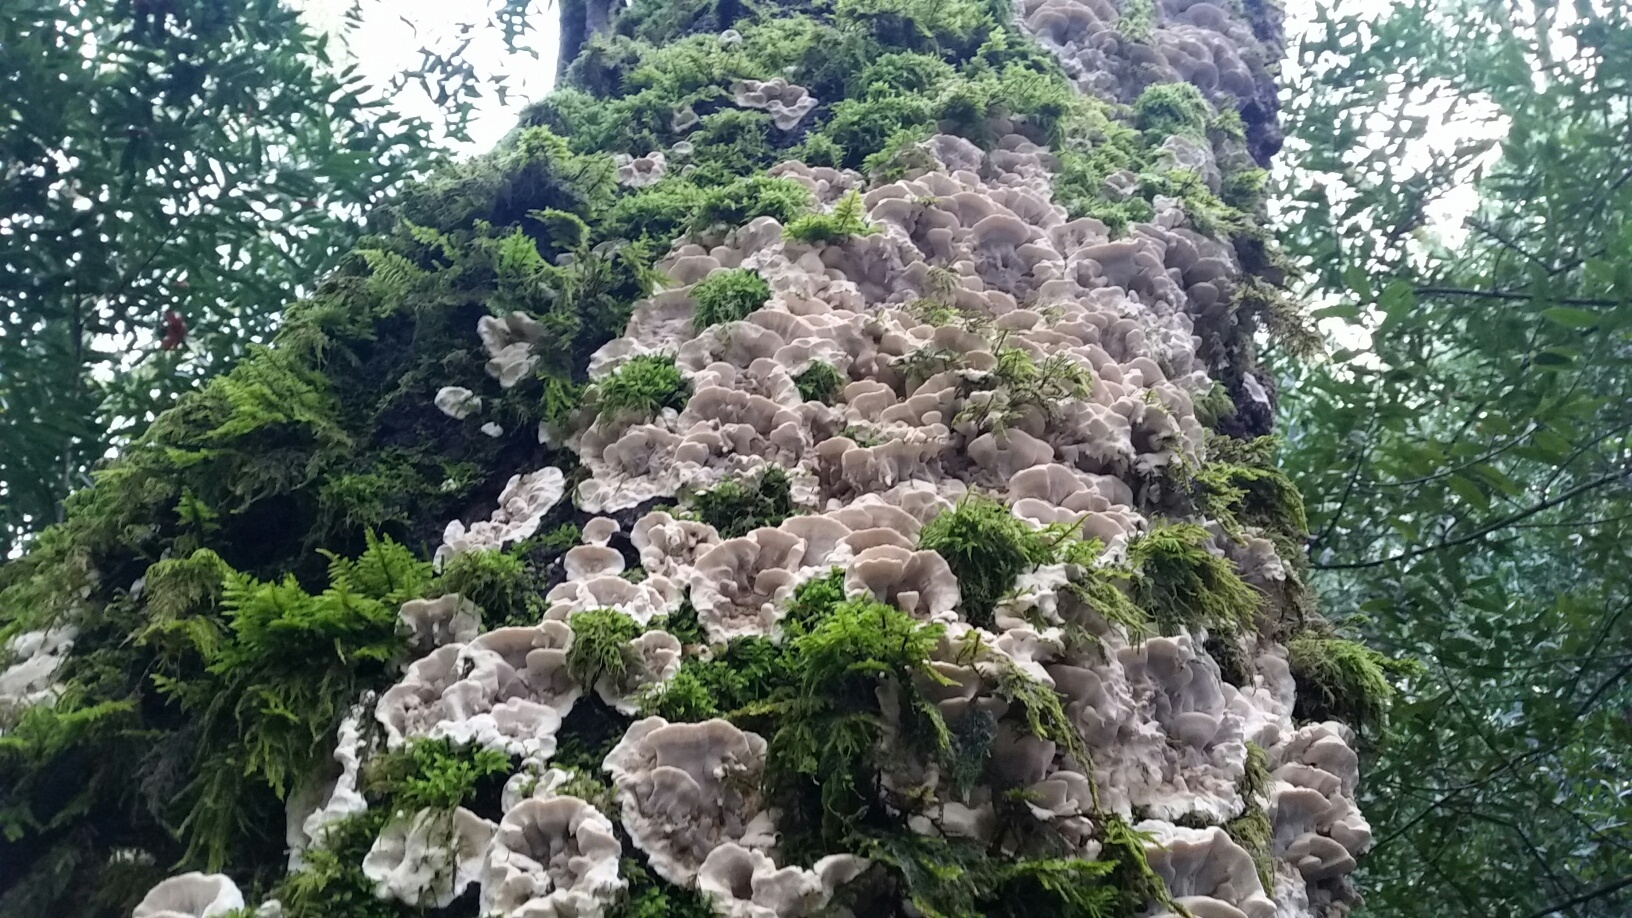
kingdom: Fungi
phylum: Basidiomycota
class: Agaricomycetes
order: Polyporales
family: Phanerochaetaceae
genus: Bjerkandera
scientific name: Bjerkandera adusta
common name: Smoky bracket
